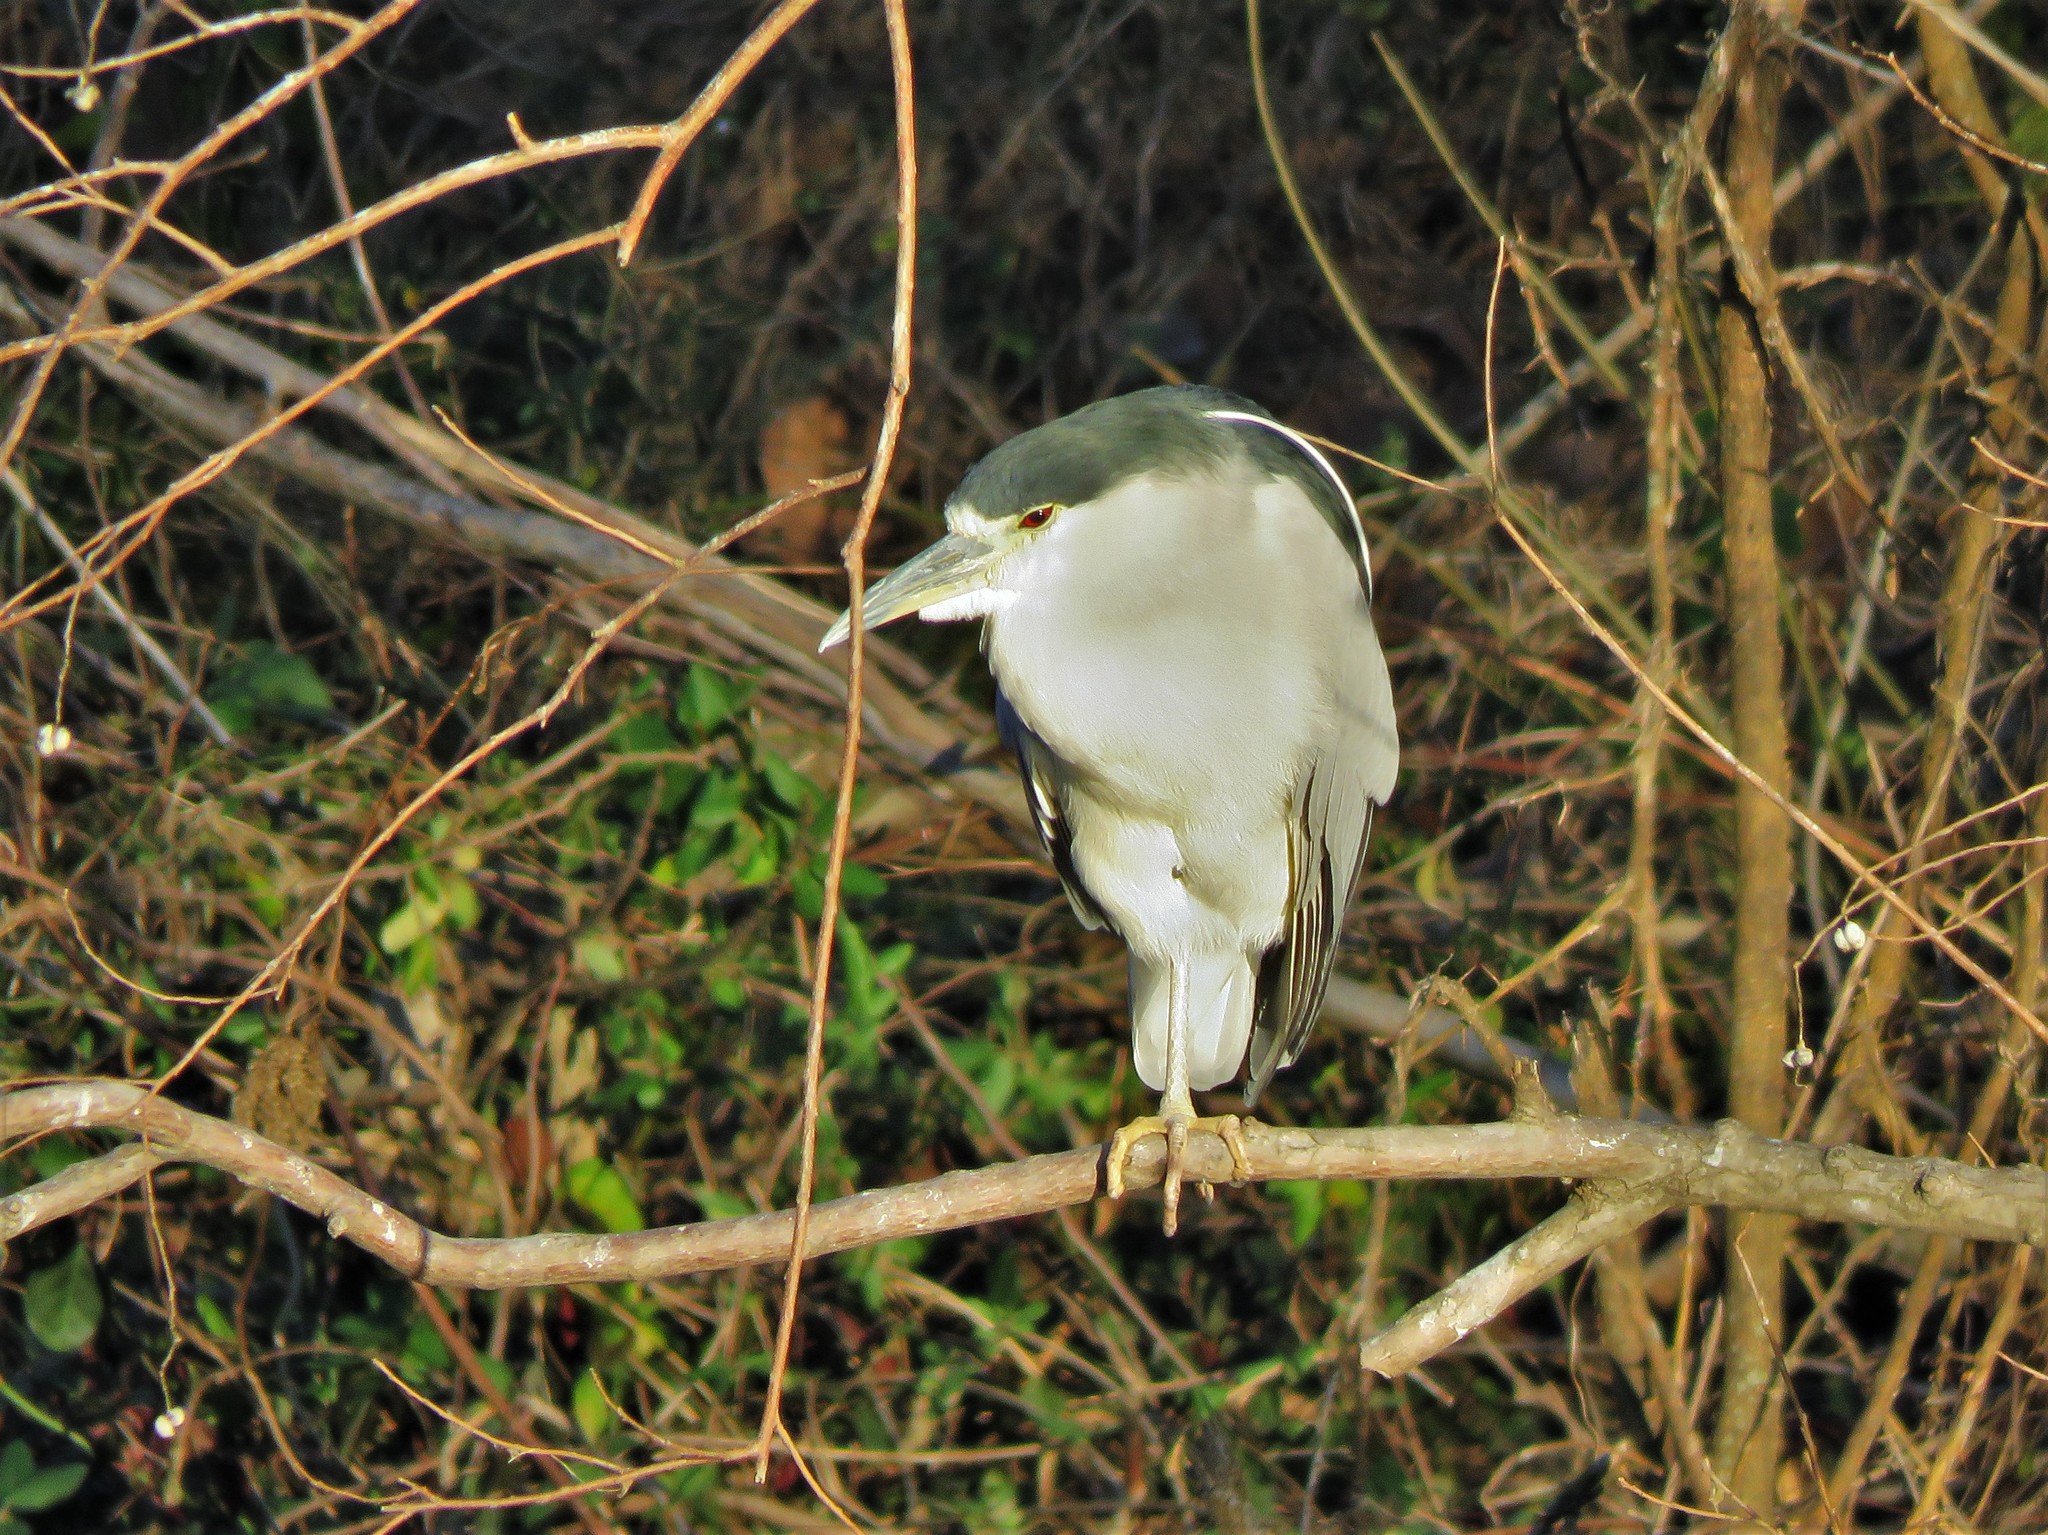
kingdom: Animalia
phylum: Chordata
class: Aves
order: Pelecaniformes
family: Ardeidae
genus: Nycticorax
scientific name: Nycticorax nycticorax
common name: Black-crowned night heron
